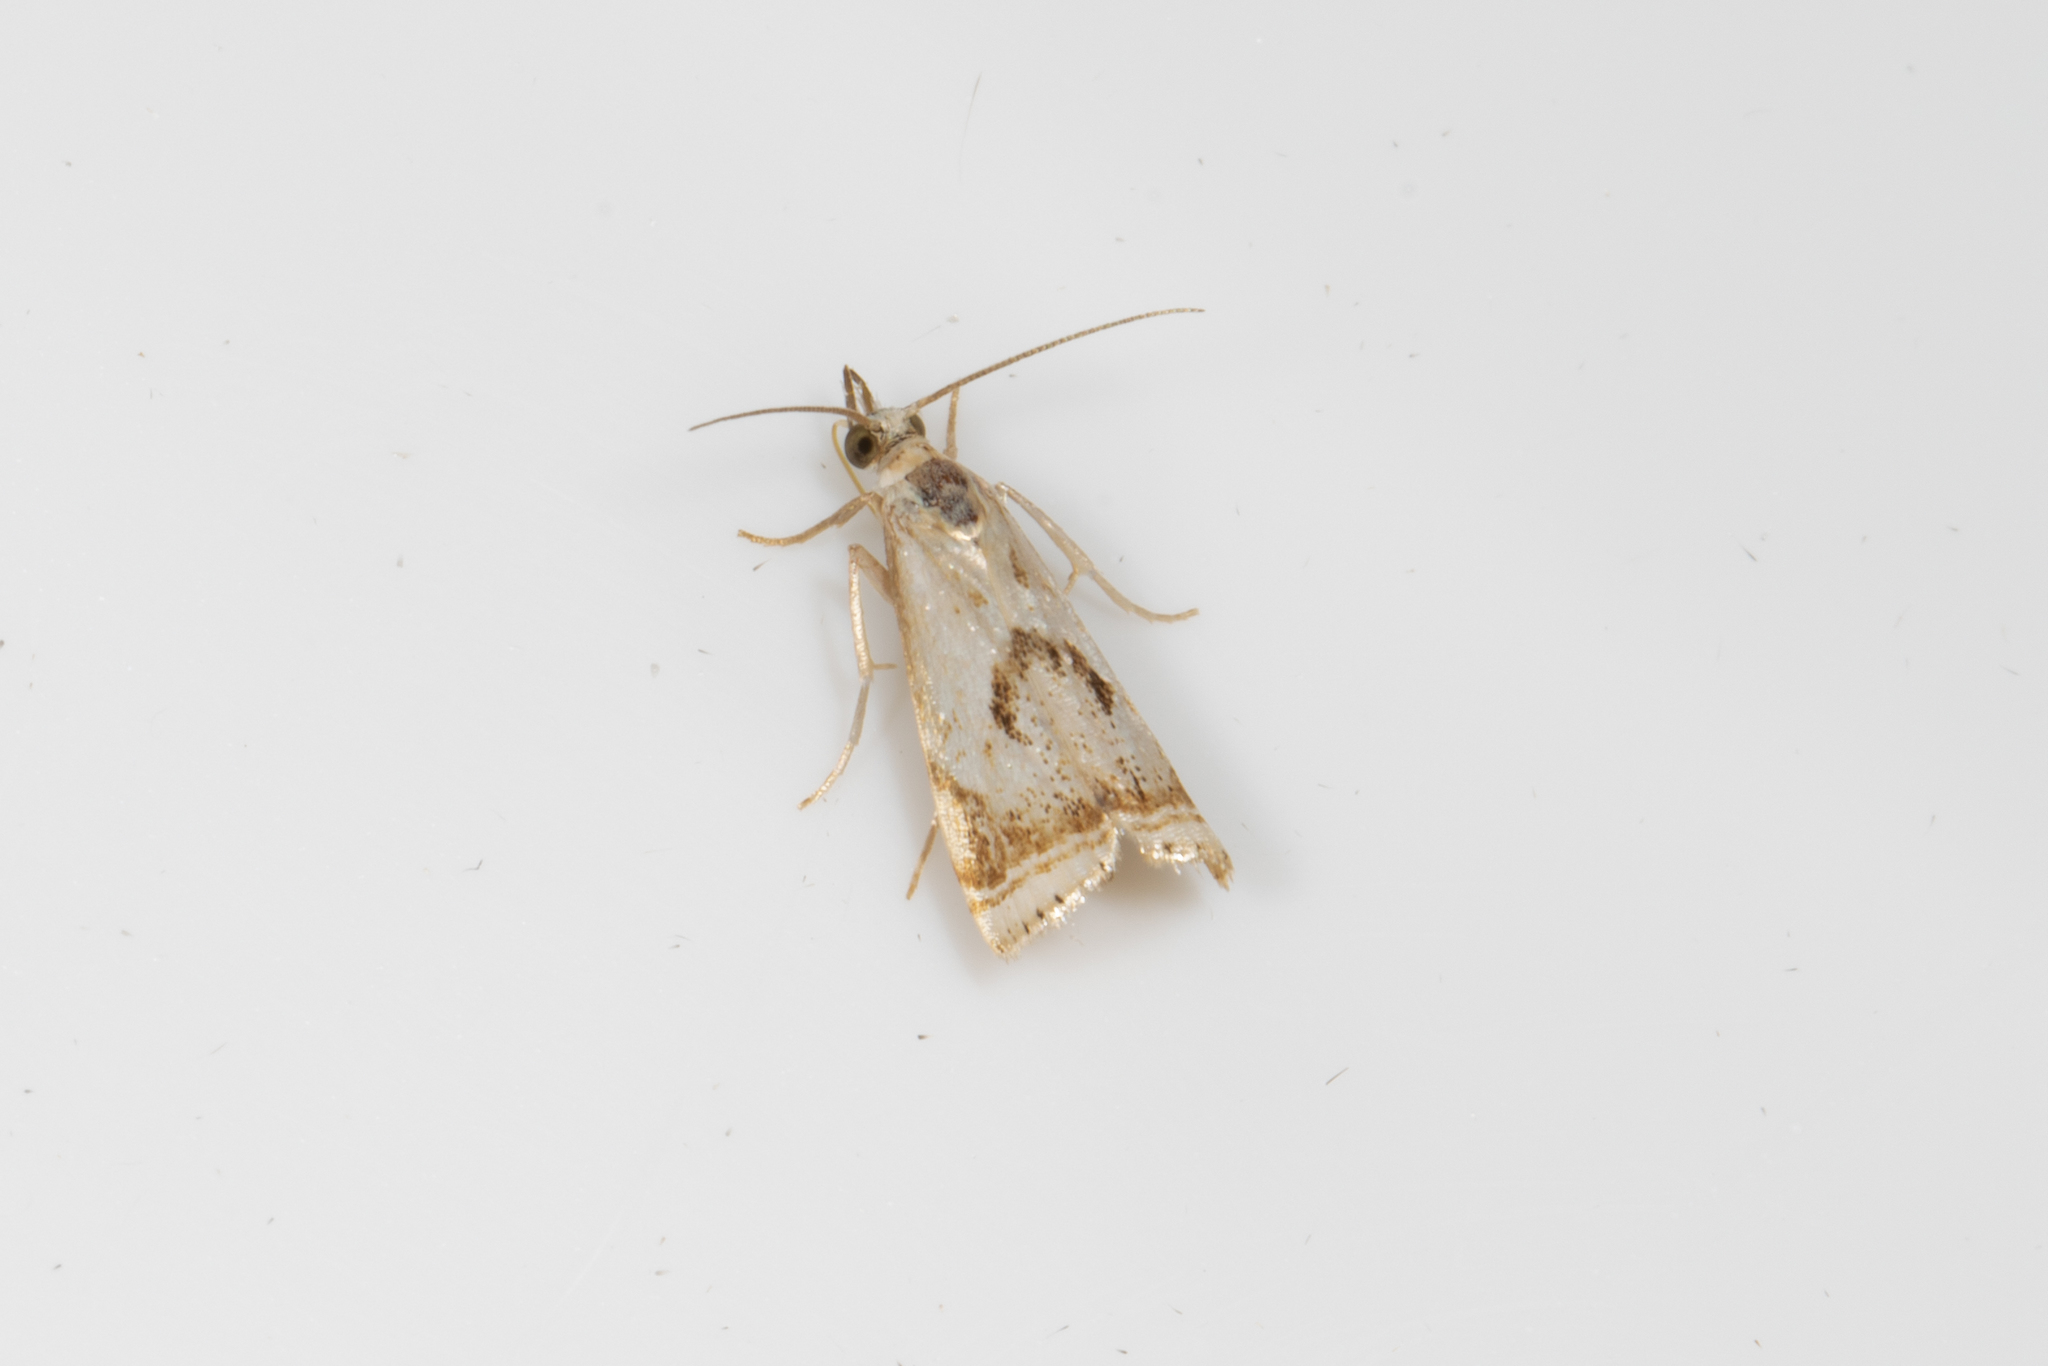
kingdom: Animalia
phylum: Arthropoda
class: Insecta
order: Lepidoptera
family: Crambidae
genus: Microcrambus
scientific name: Microcrambus elegans
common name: Elegant grass-veneer
